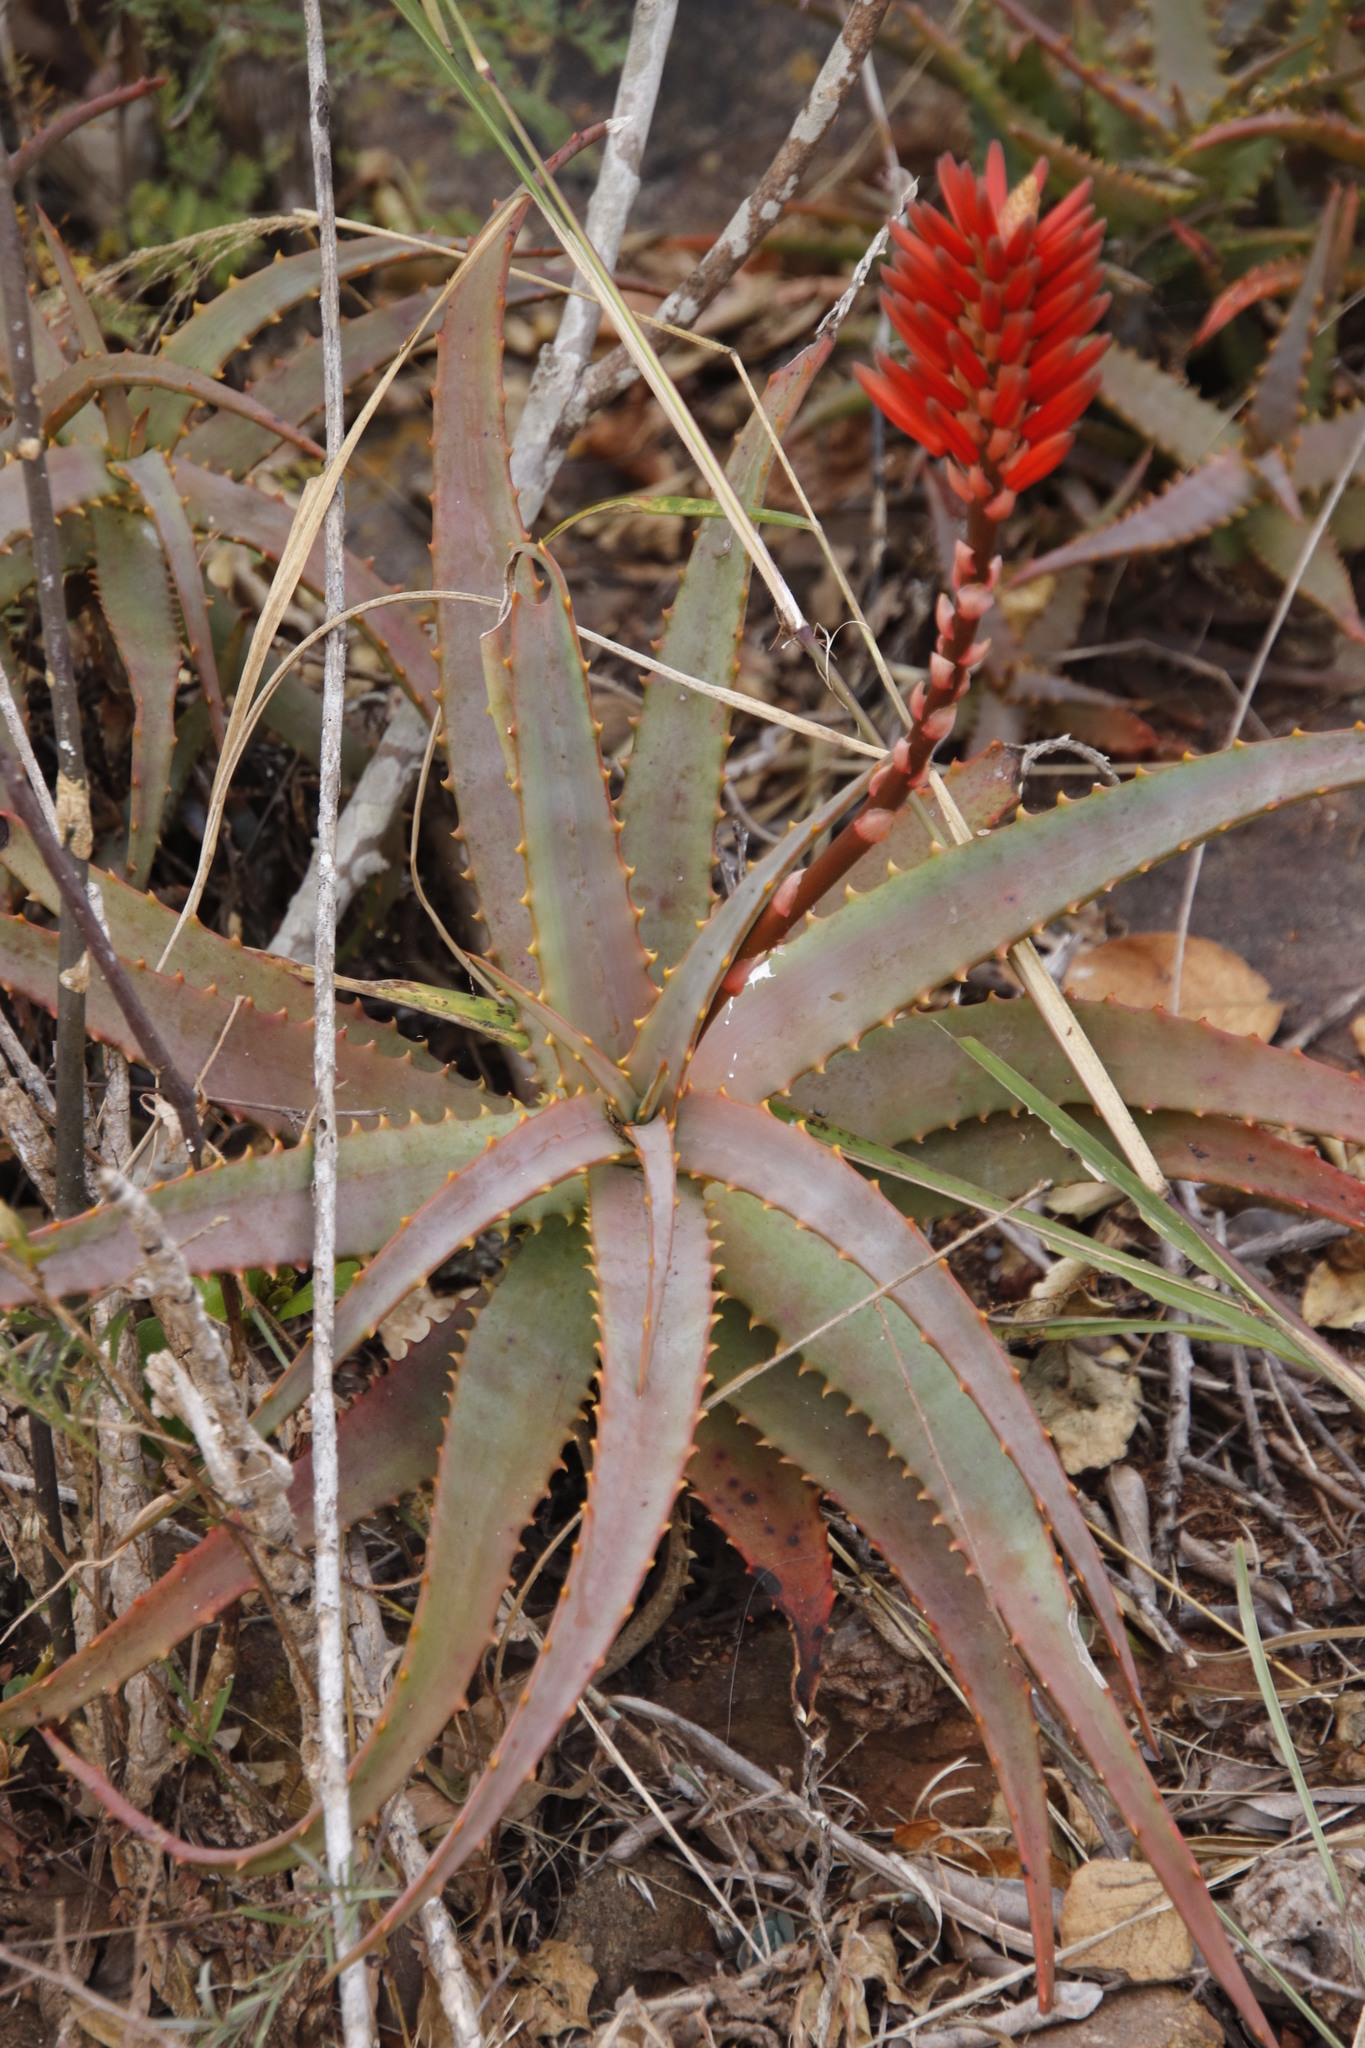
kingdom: Plantae
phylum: Tracheophyta
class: Liliopsida
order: Asparagales
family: Asphodelaceae
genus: Aloe
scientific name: Aloe arborescens
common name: Candelabra aloe
